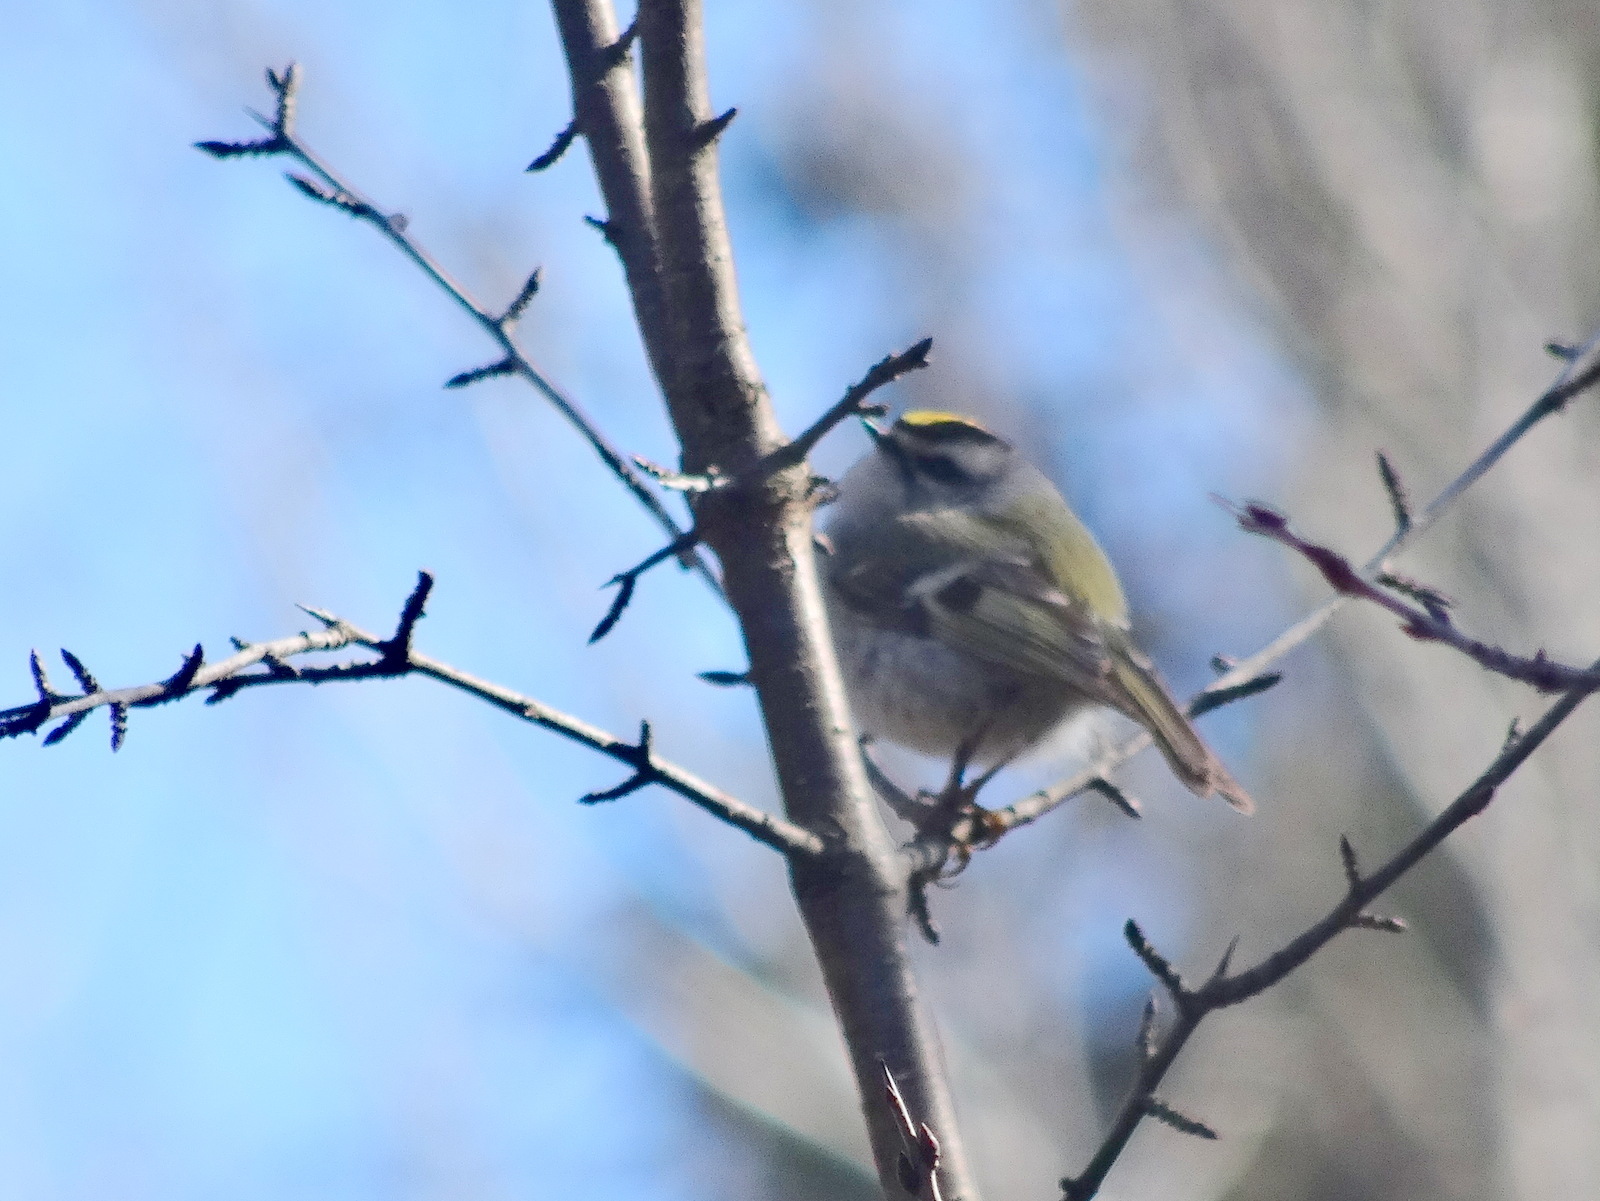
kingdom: Animalia
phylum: Chordata
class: Aves
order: Passeriformes
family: Regulidae
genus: Regulus
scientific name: Regulus satrapa
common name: Golden-crowned kinglet
